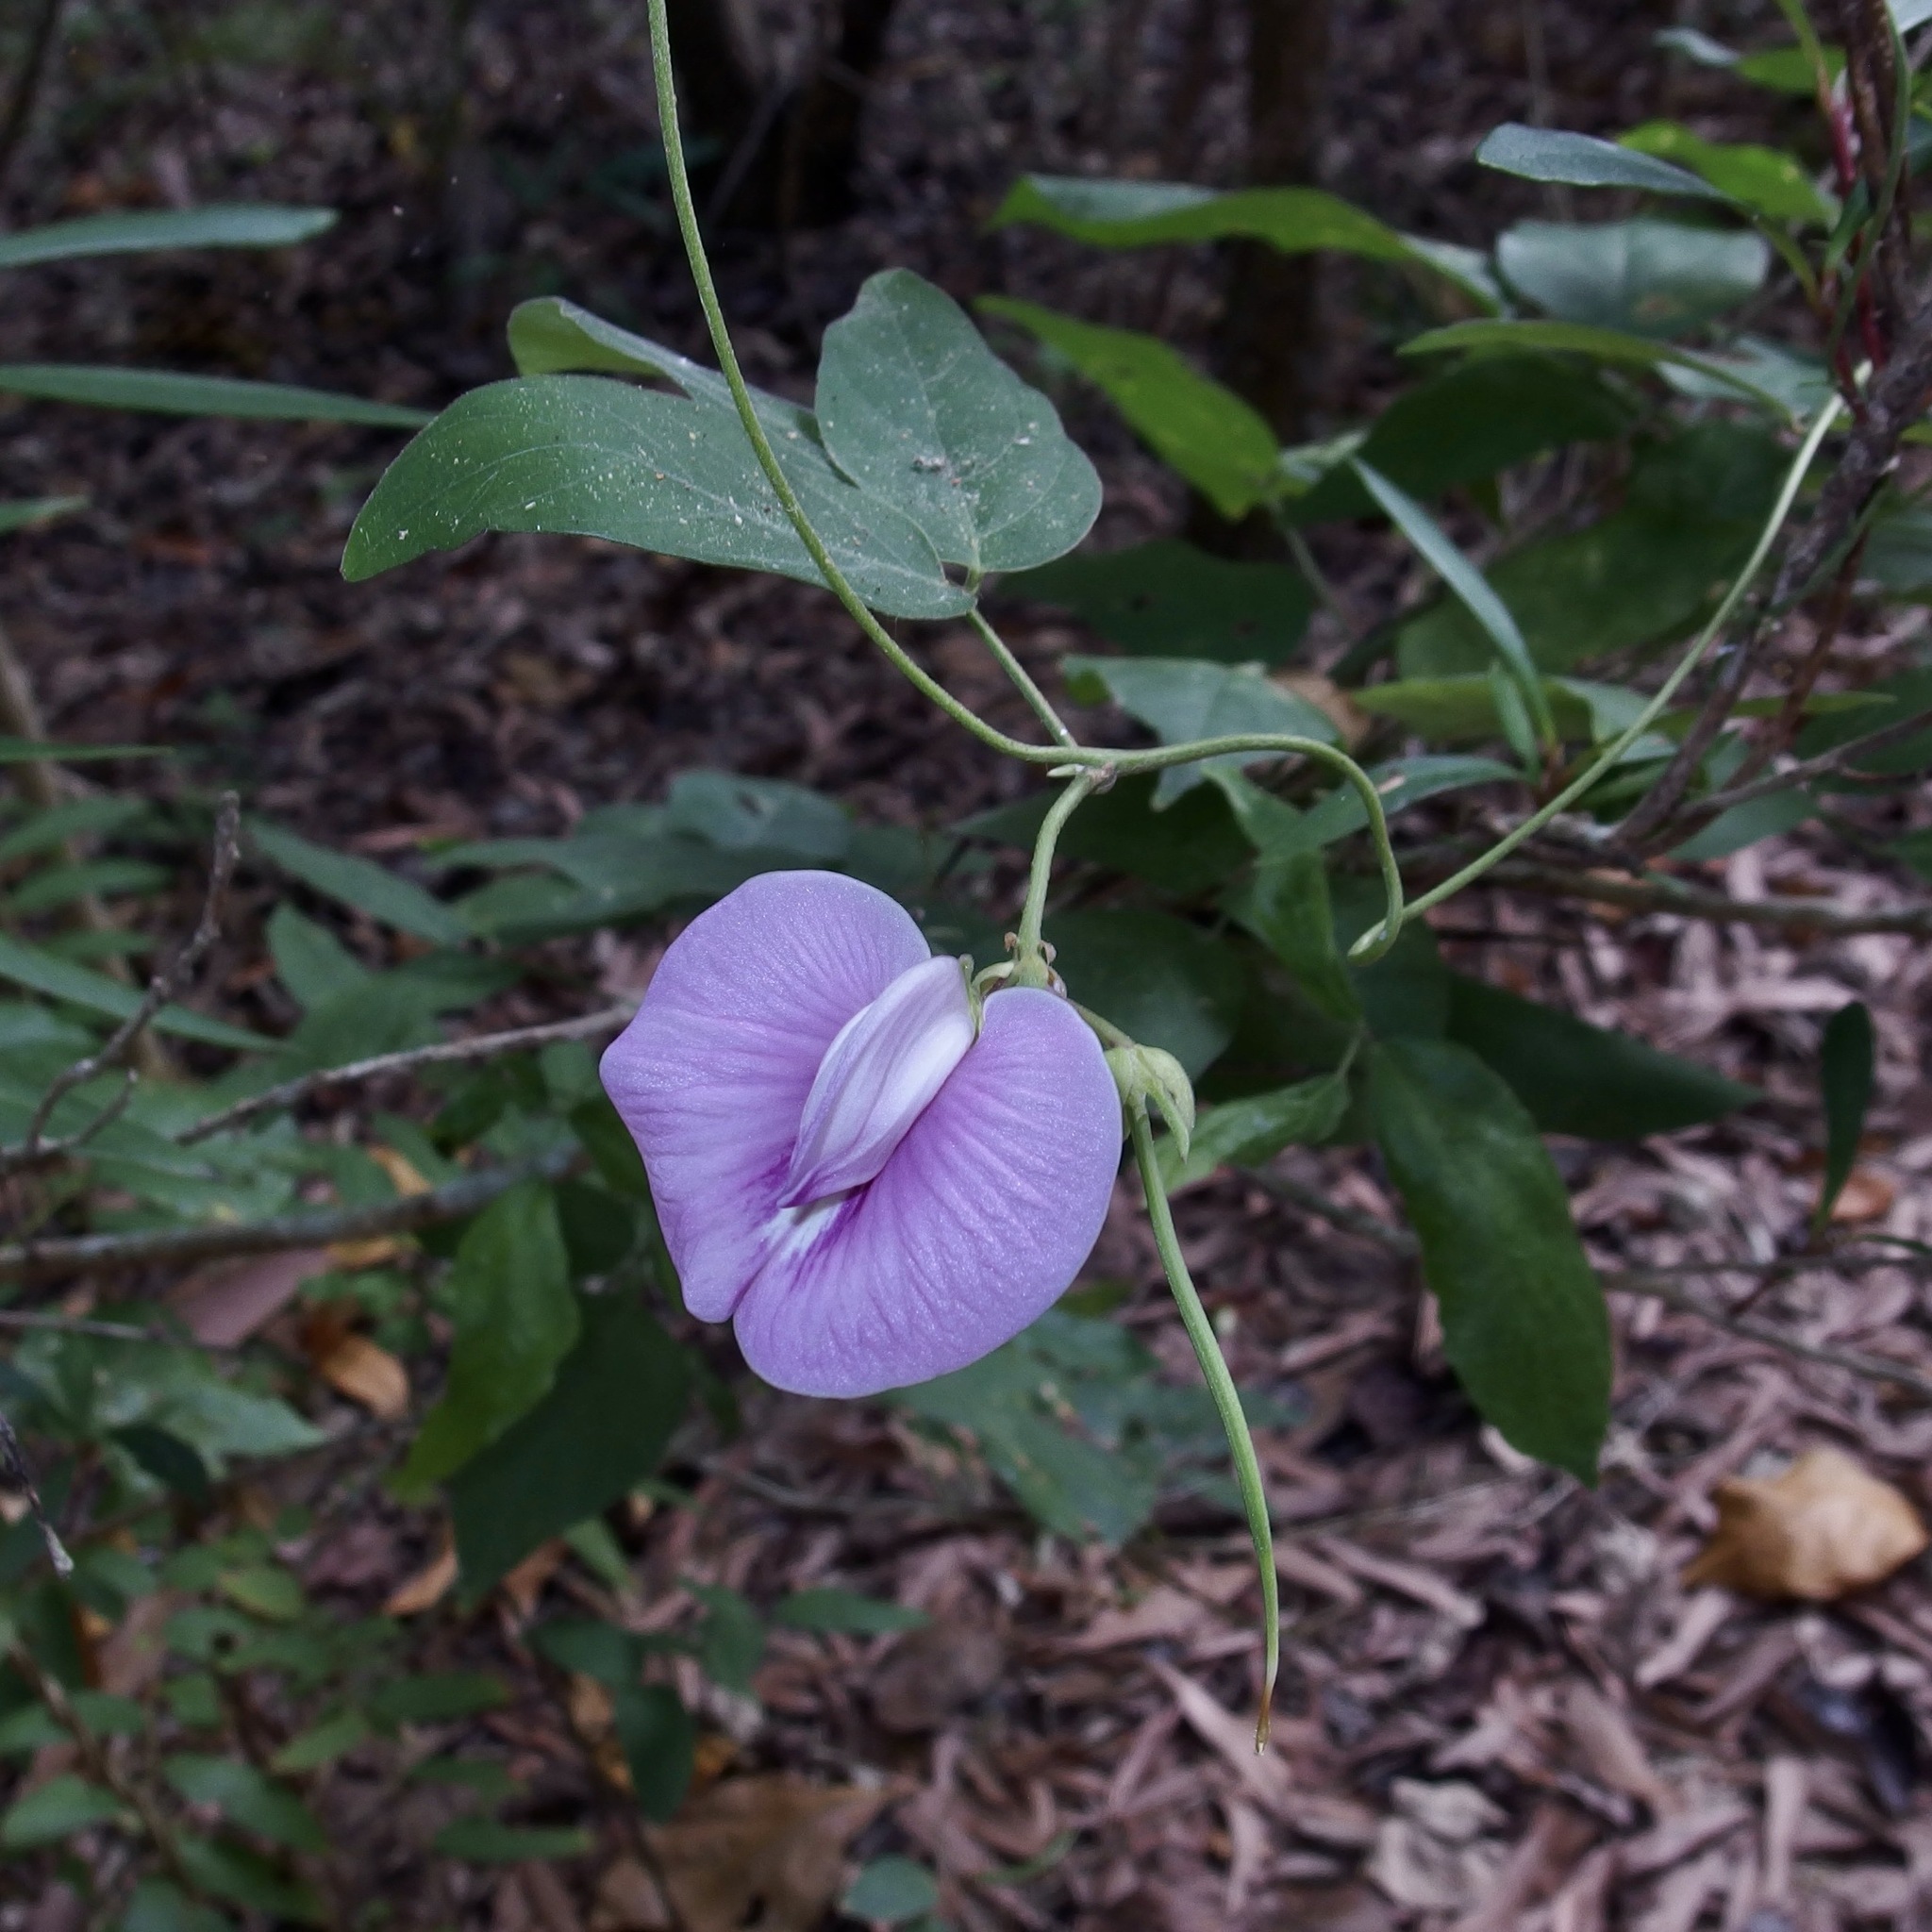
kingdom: Plantae
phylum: Tracheophyta
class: Magnoliopsida
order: Fabales
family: Fabaceae
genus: Centrosema
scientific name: Centrosema molle
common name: Soft butterfly pea
